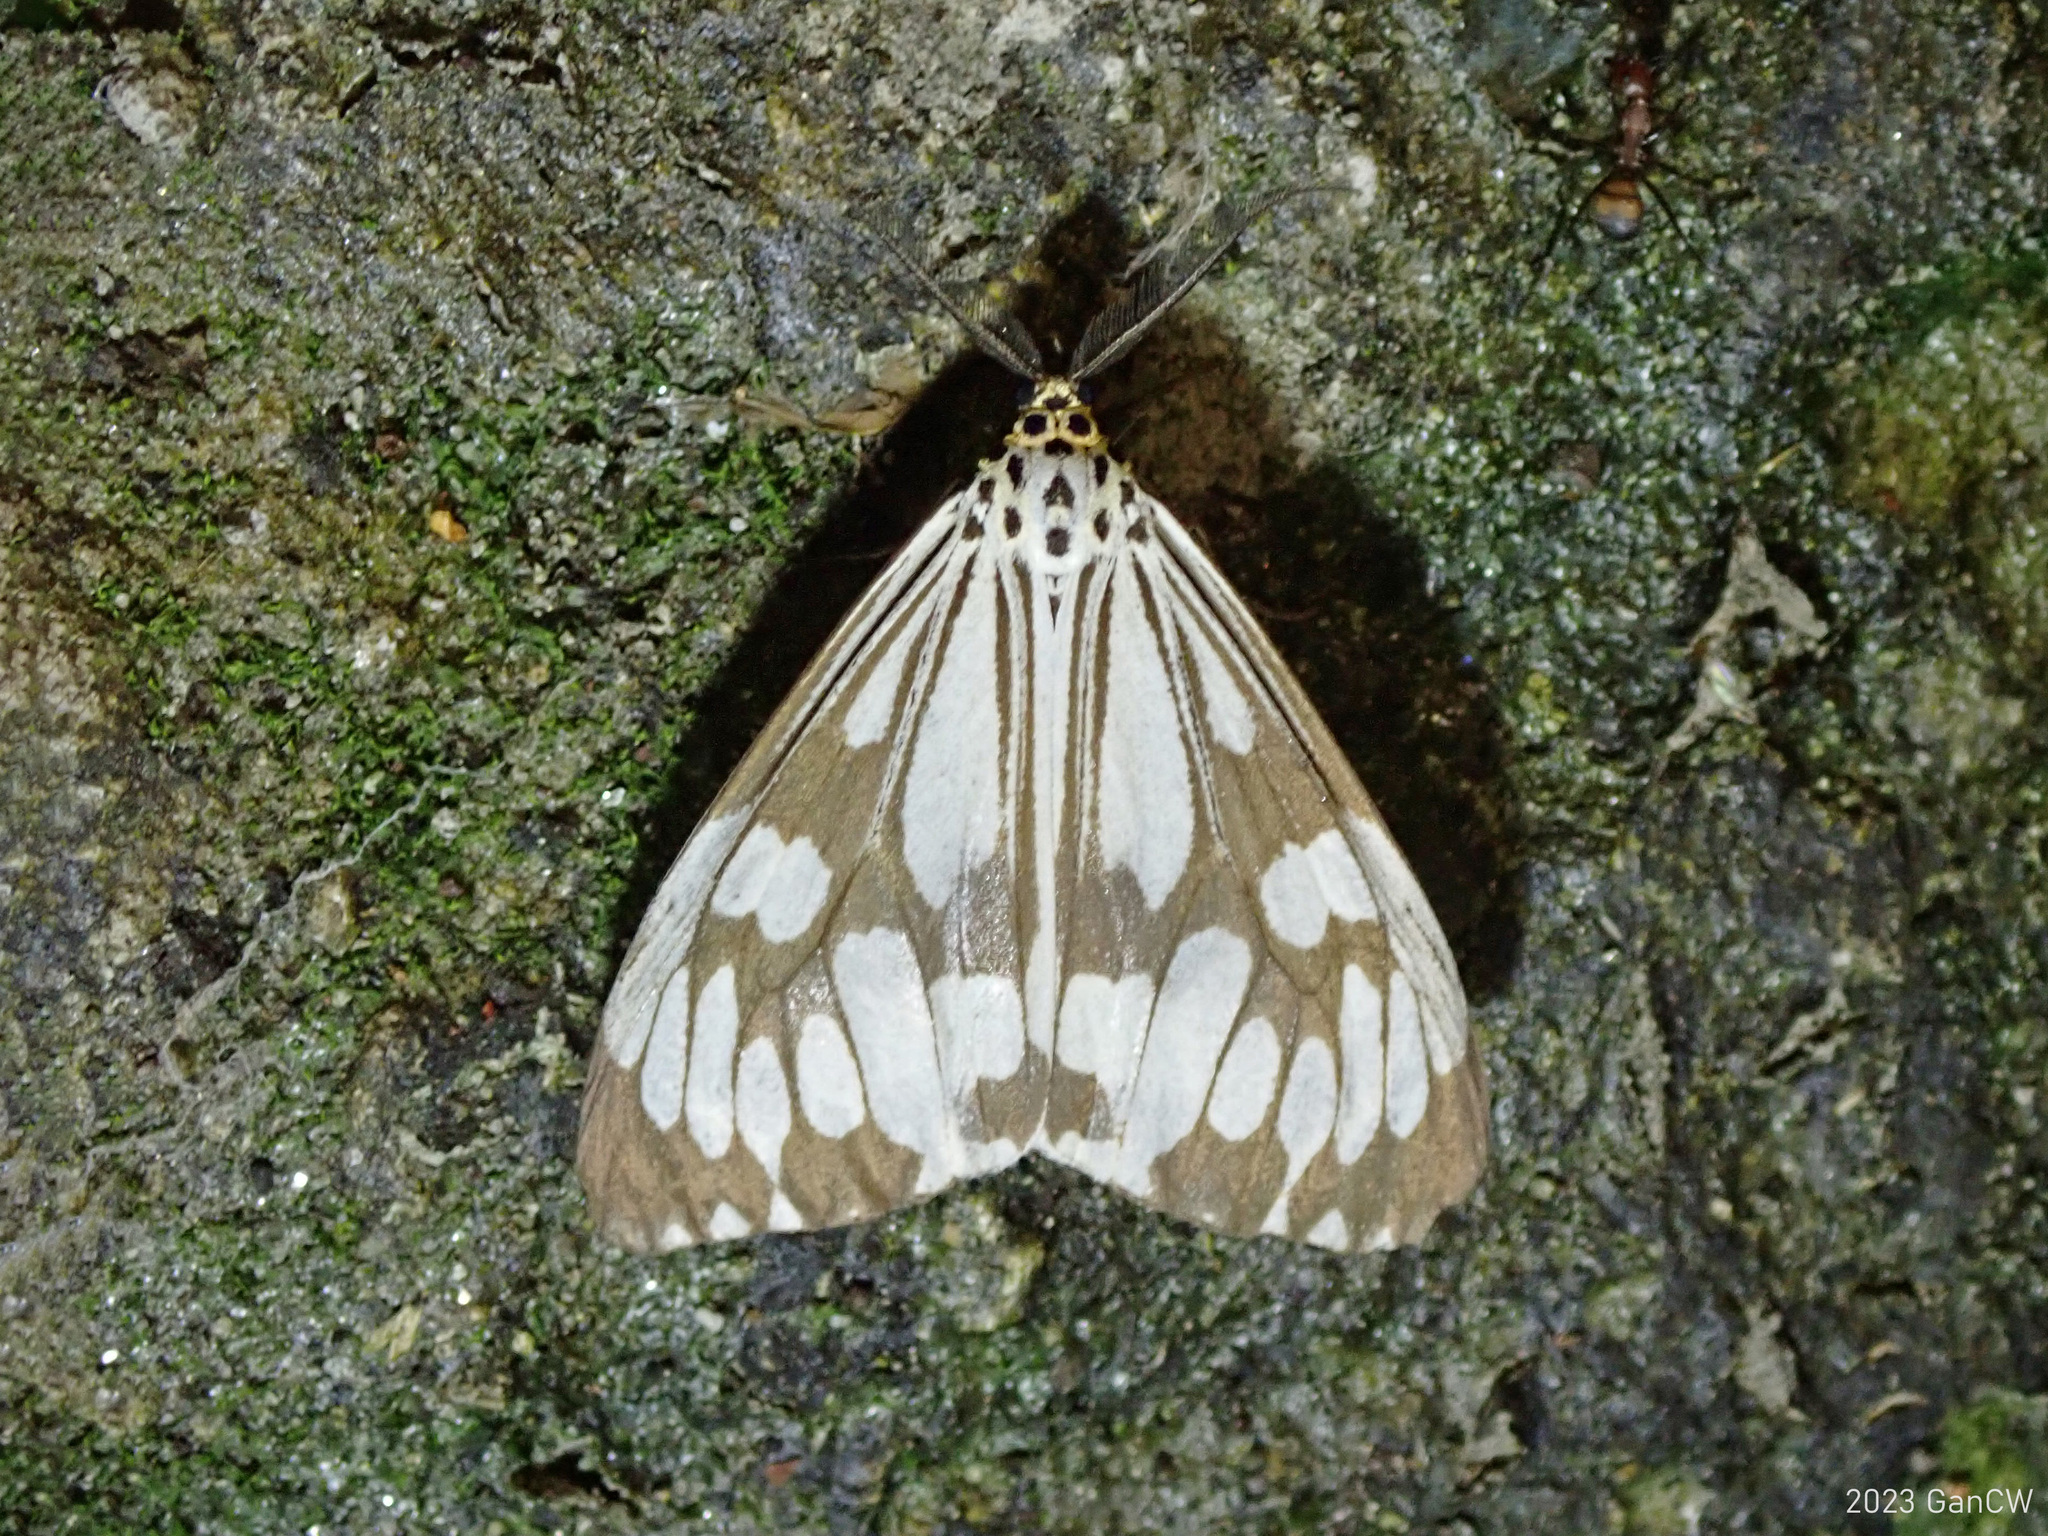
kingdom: Animalia
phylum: Arthropoda
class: Insecta
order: Lepidoptera
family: Erebidae
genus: Nyctemera
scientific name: Nyctemera adversata
